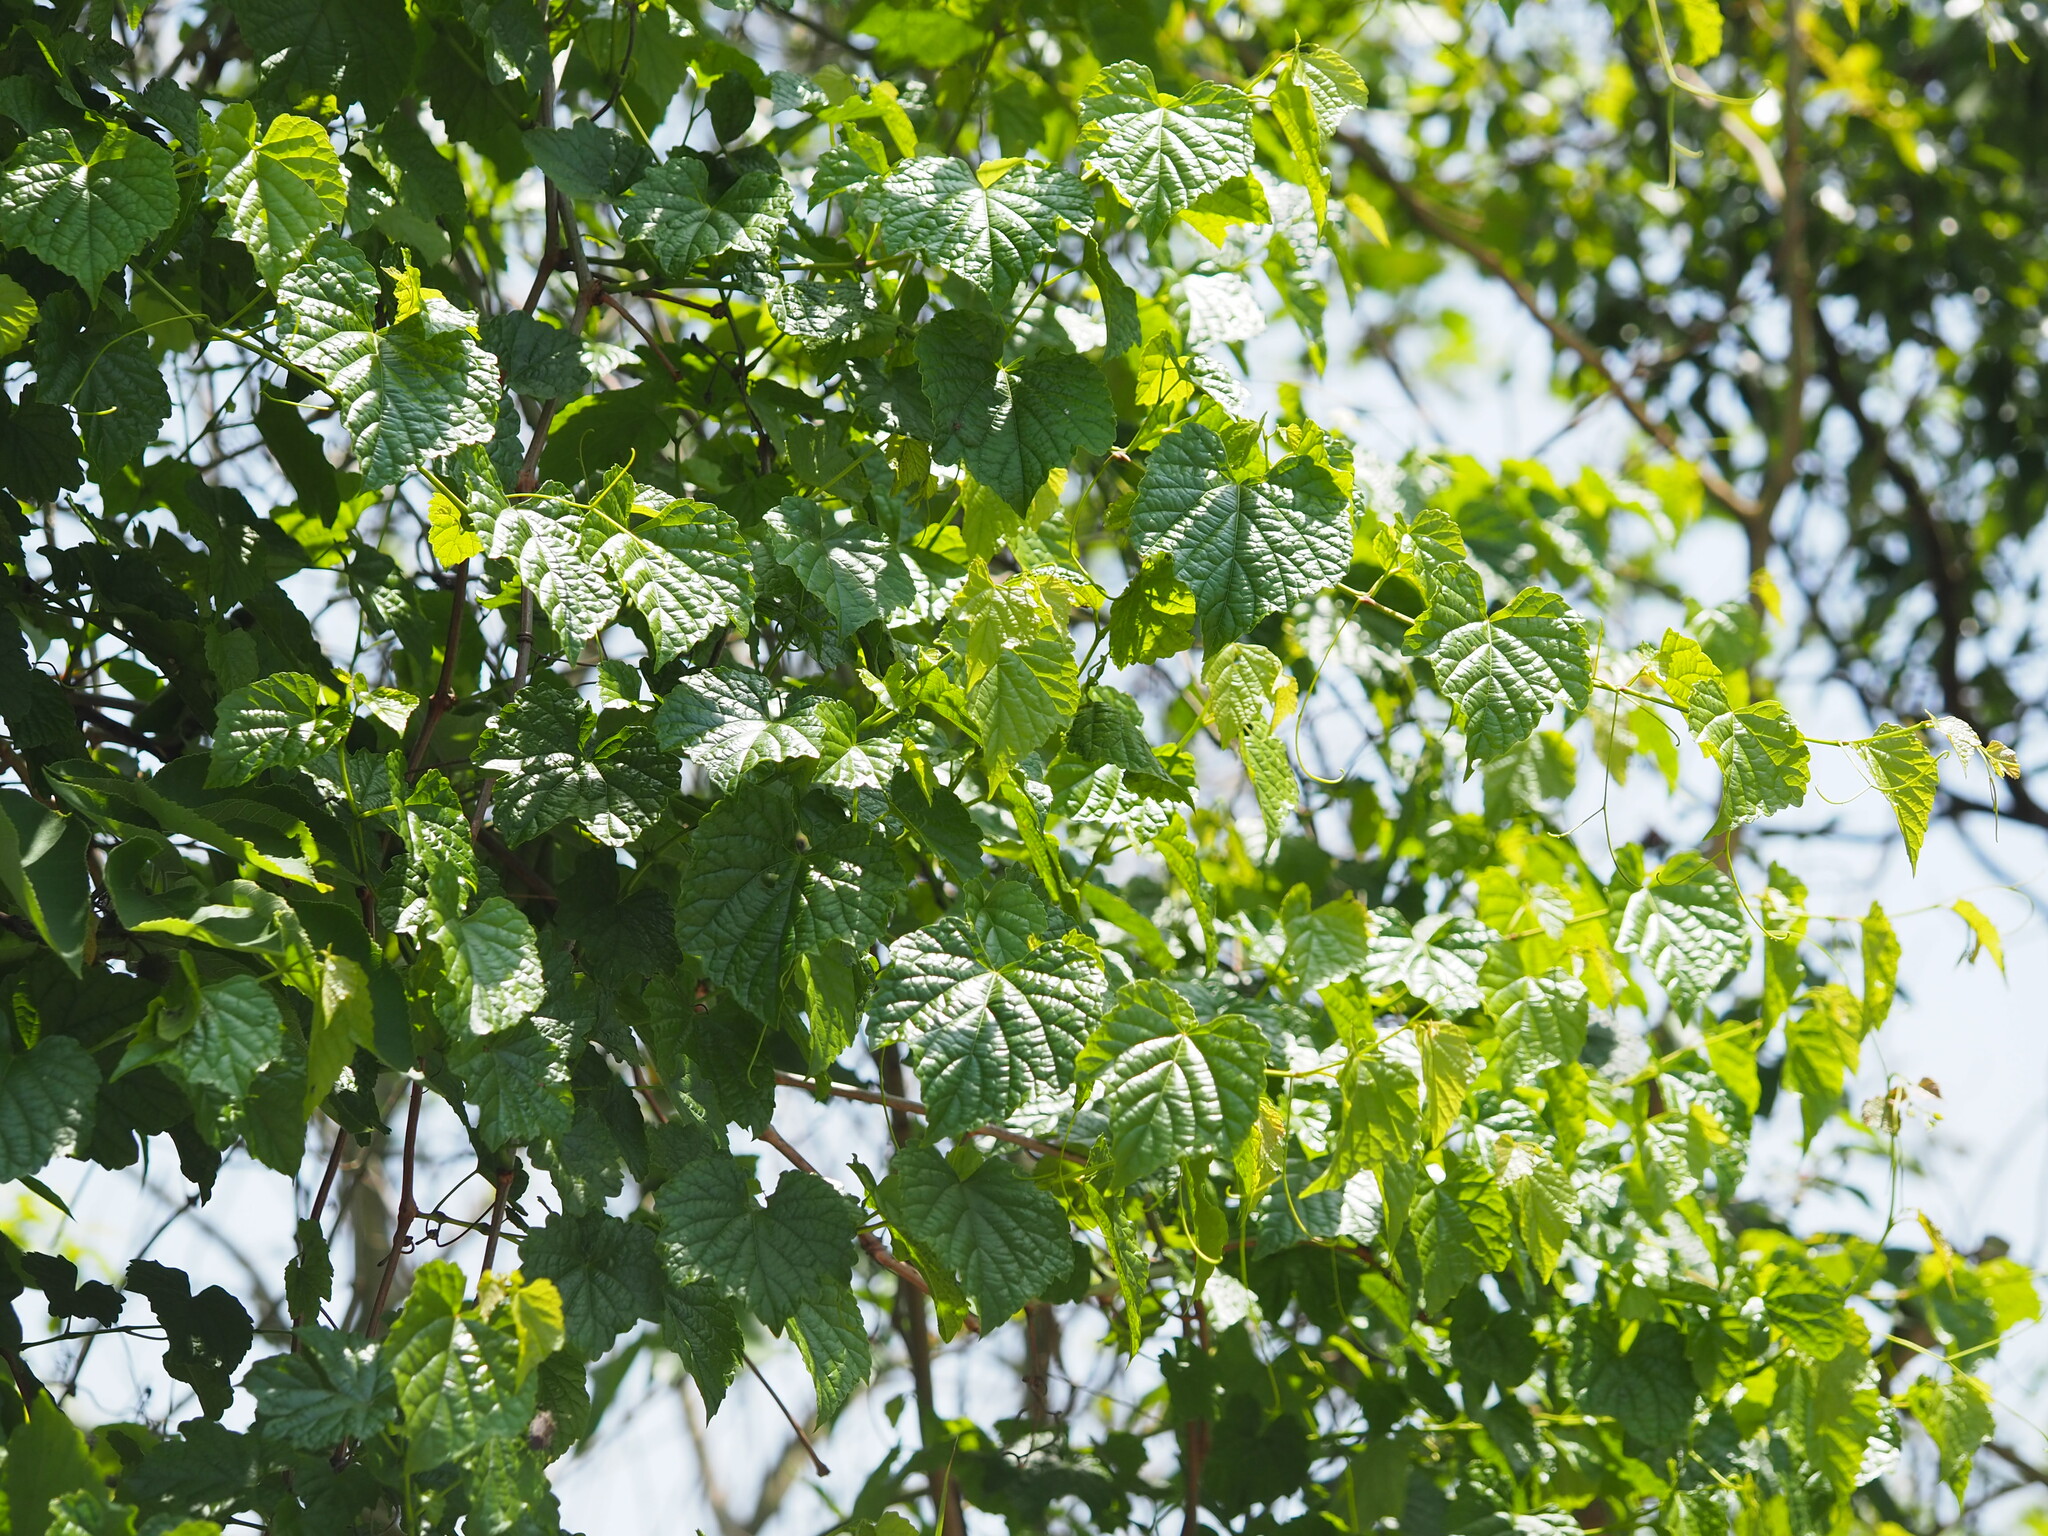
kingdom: Plantae
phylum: Tracheophyta
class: Magnoliopsida
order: Vitales
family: Vitaceae
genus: Ampelopsis
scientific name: Ampelopsis glandulosa
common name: Amur peppervine
